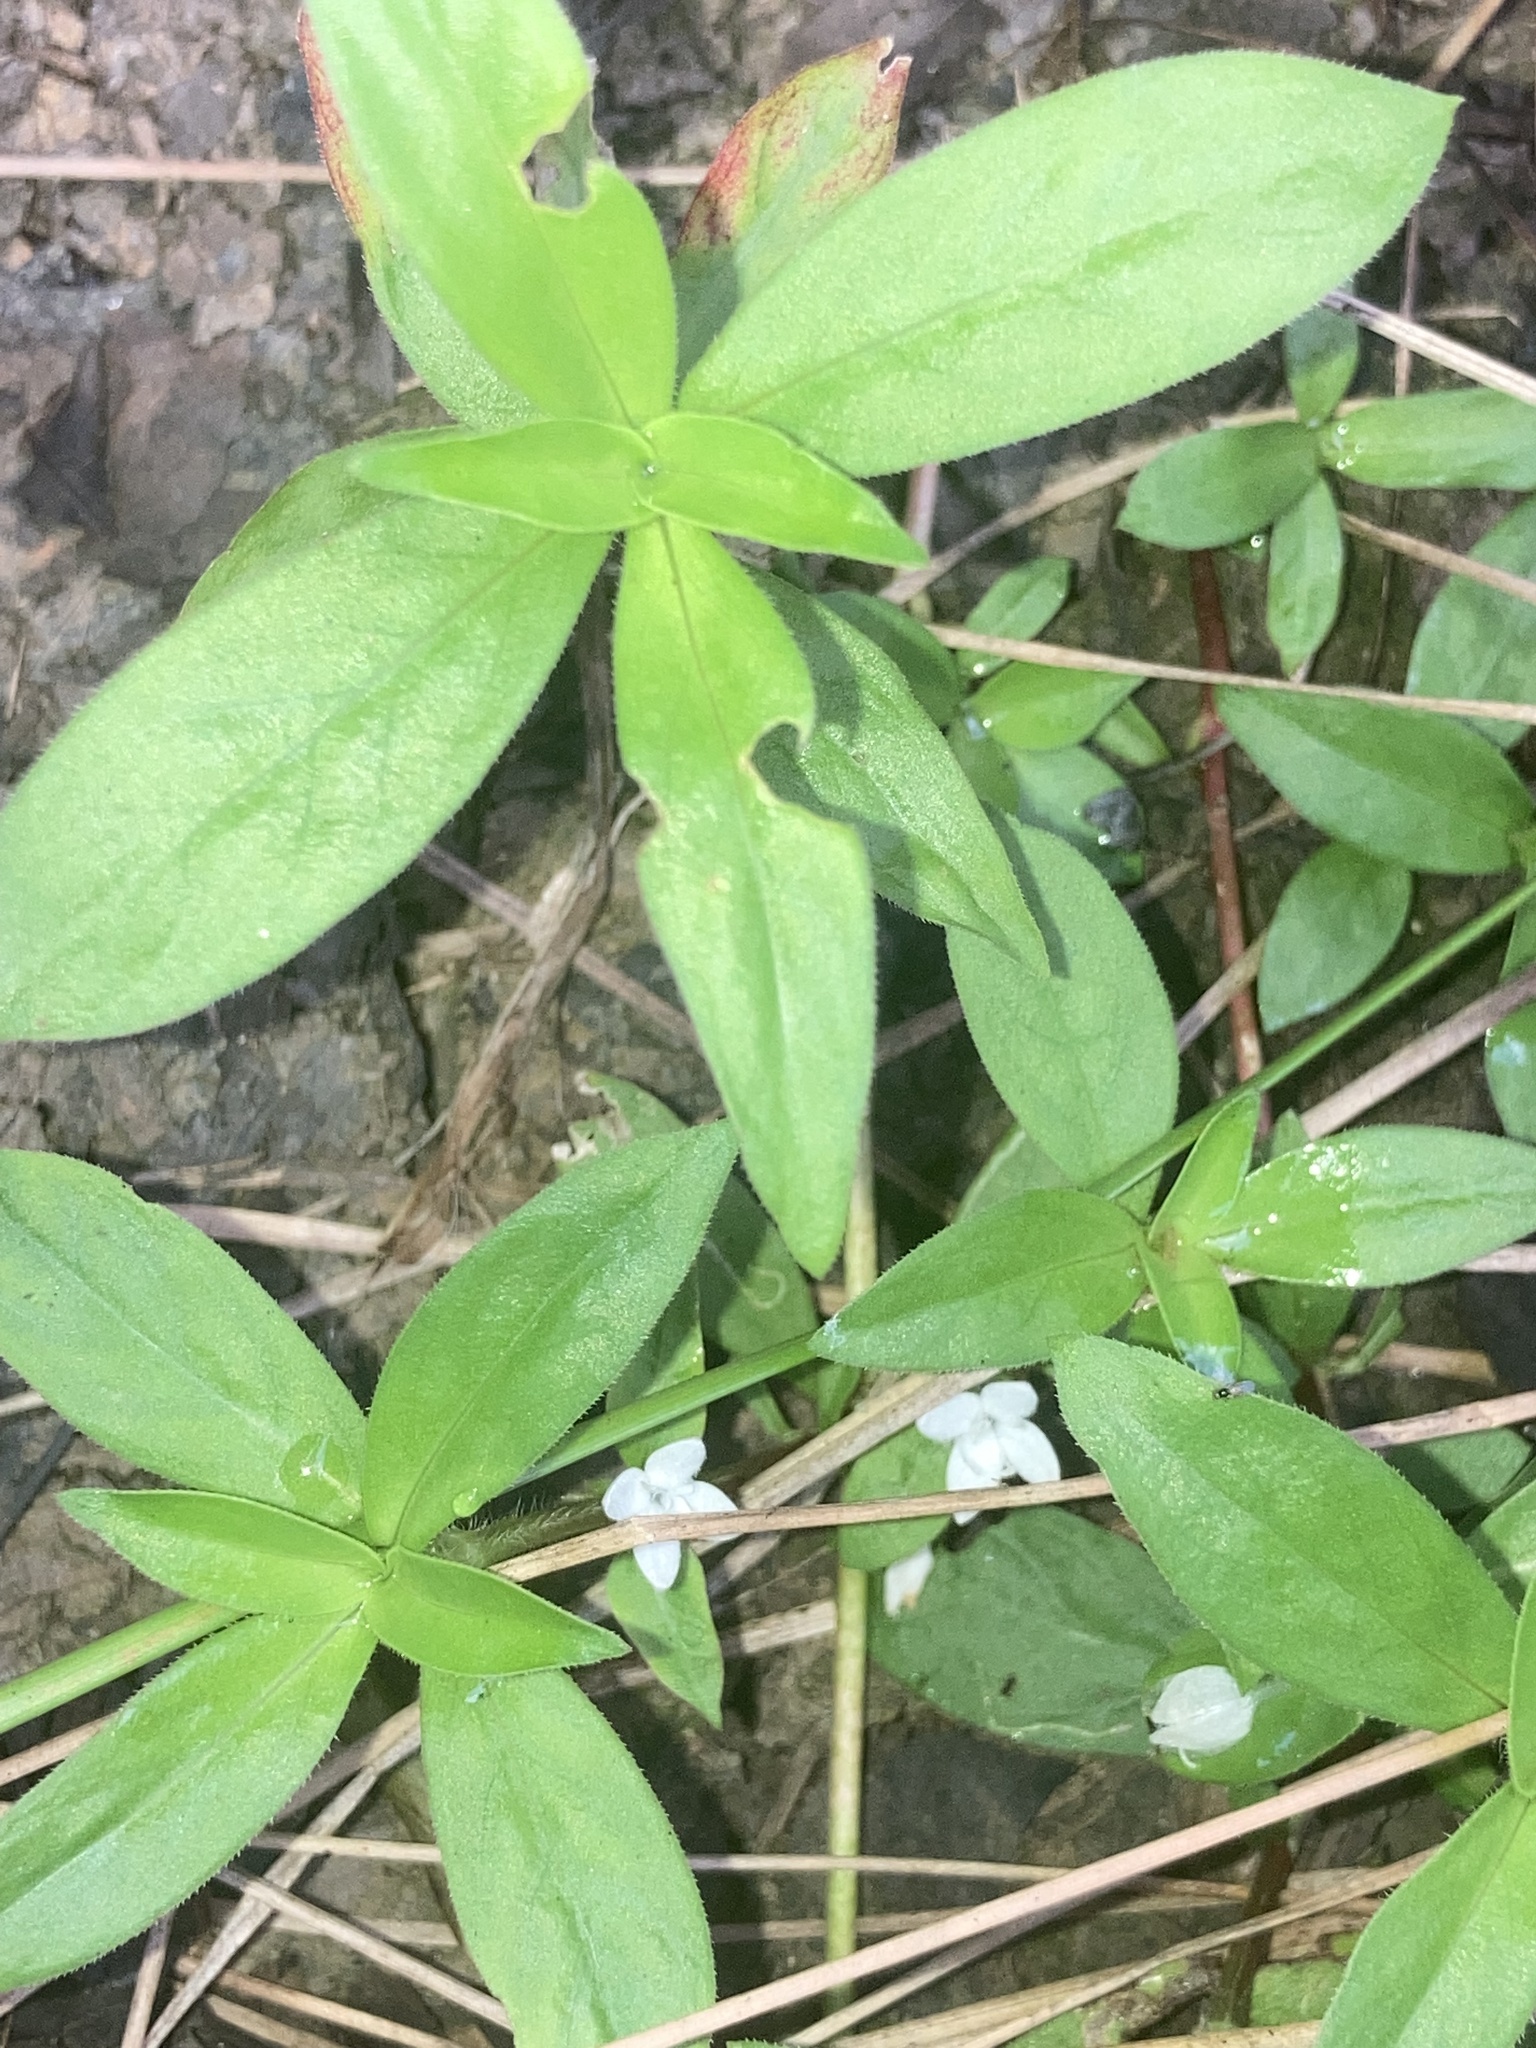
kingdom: Plantae
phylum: Tracheophyta
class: Magnoliopsida
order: Gentianales
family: Rubiaceae
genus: Diodia
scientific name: Diodia virginiana
